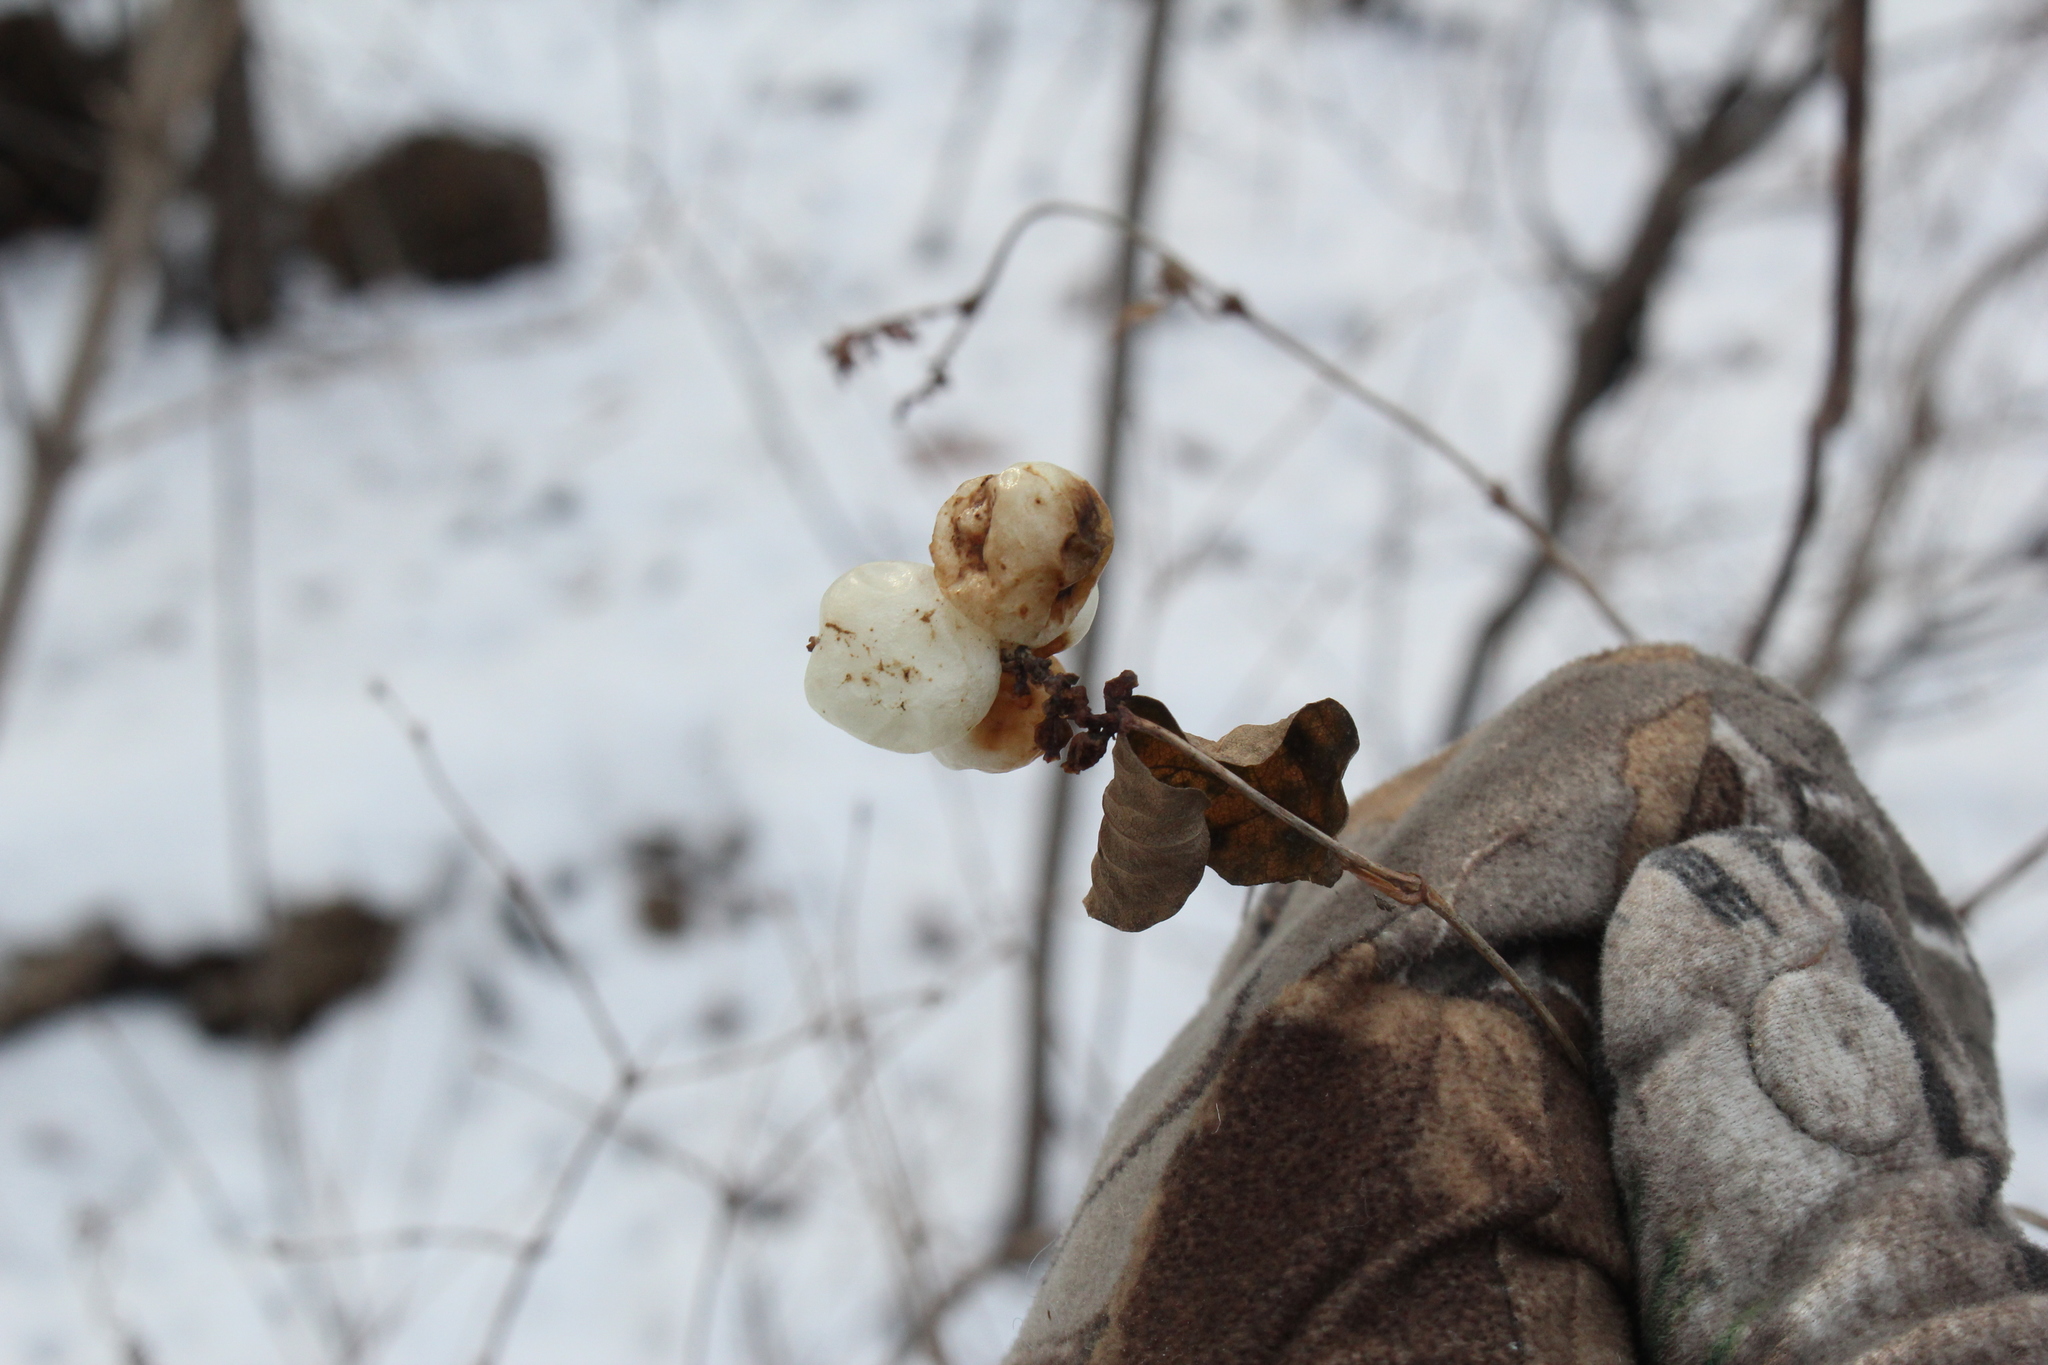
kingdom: Plantae
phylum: Tracheophyta
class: Magnoliopsida
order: Dipsacales
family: Caprifoliaceae
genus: Symphoricarpos
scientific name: Symphoricarpos albus
